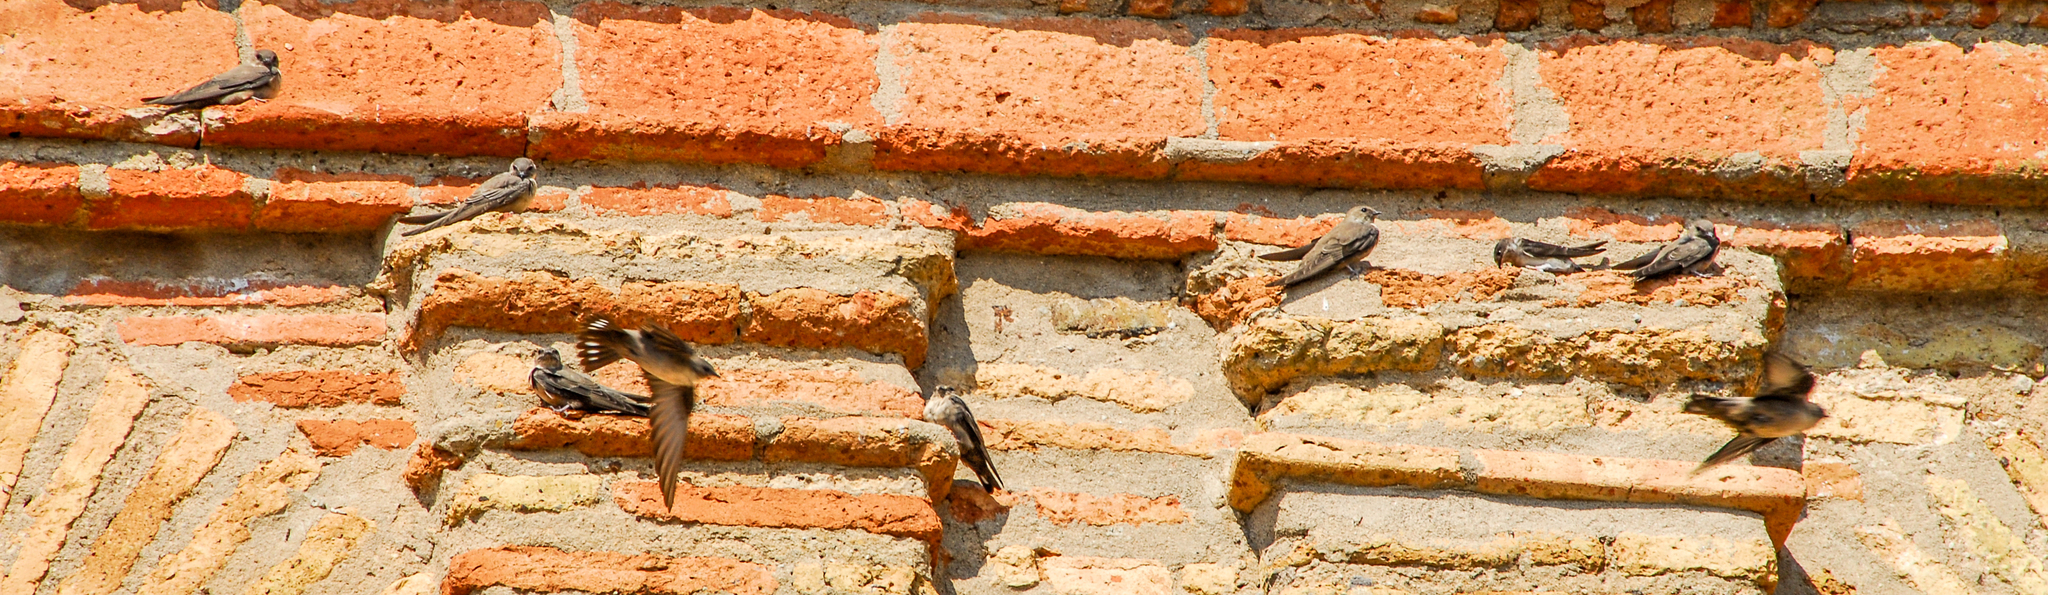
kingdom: Animalia
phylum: Chordata
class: Aves
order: Passeriformes
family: Hirundinidae
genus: Ptyonoprogne
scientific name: Ptyonoprogne rupestris
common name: Eurasian crag martin
